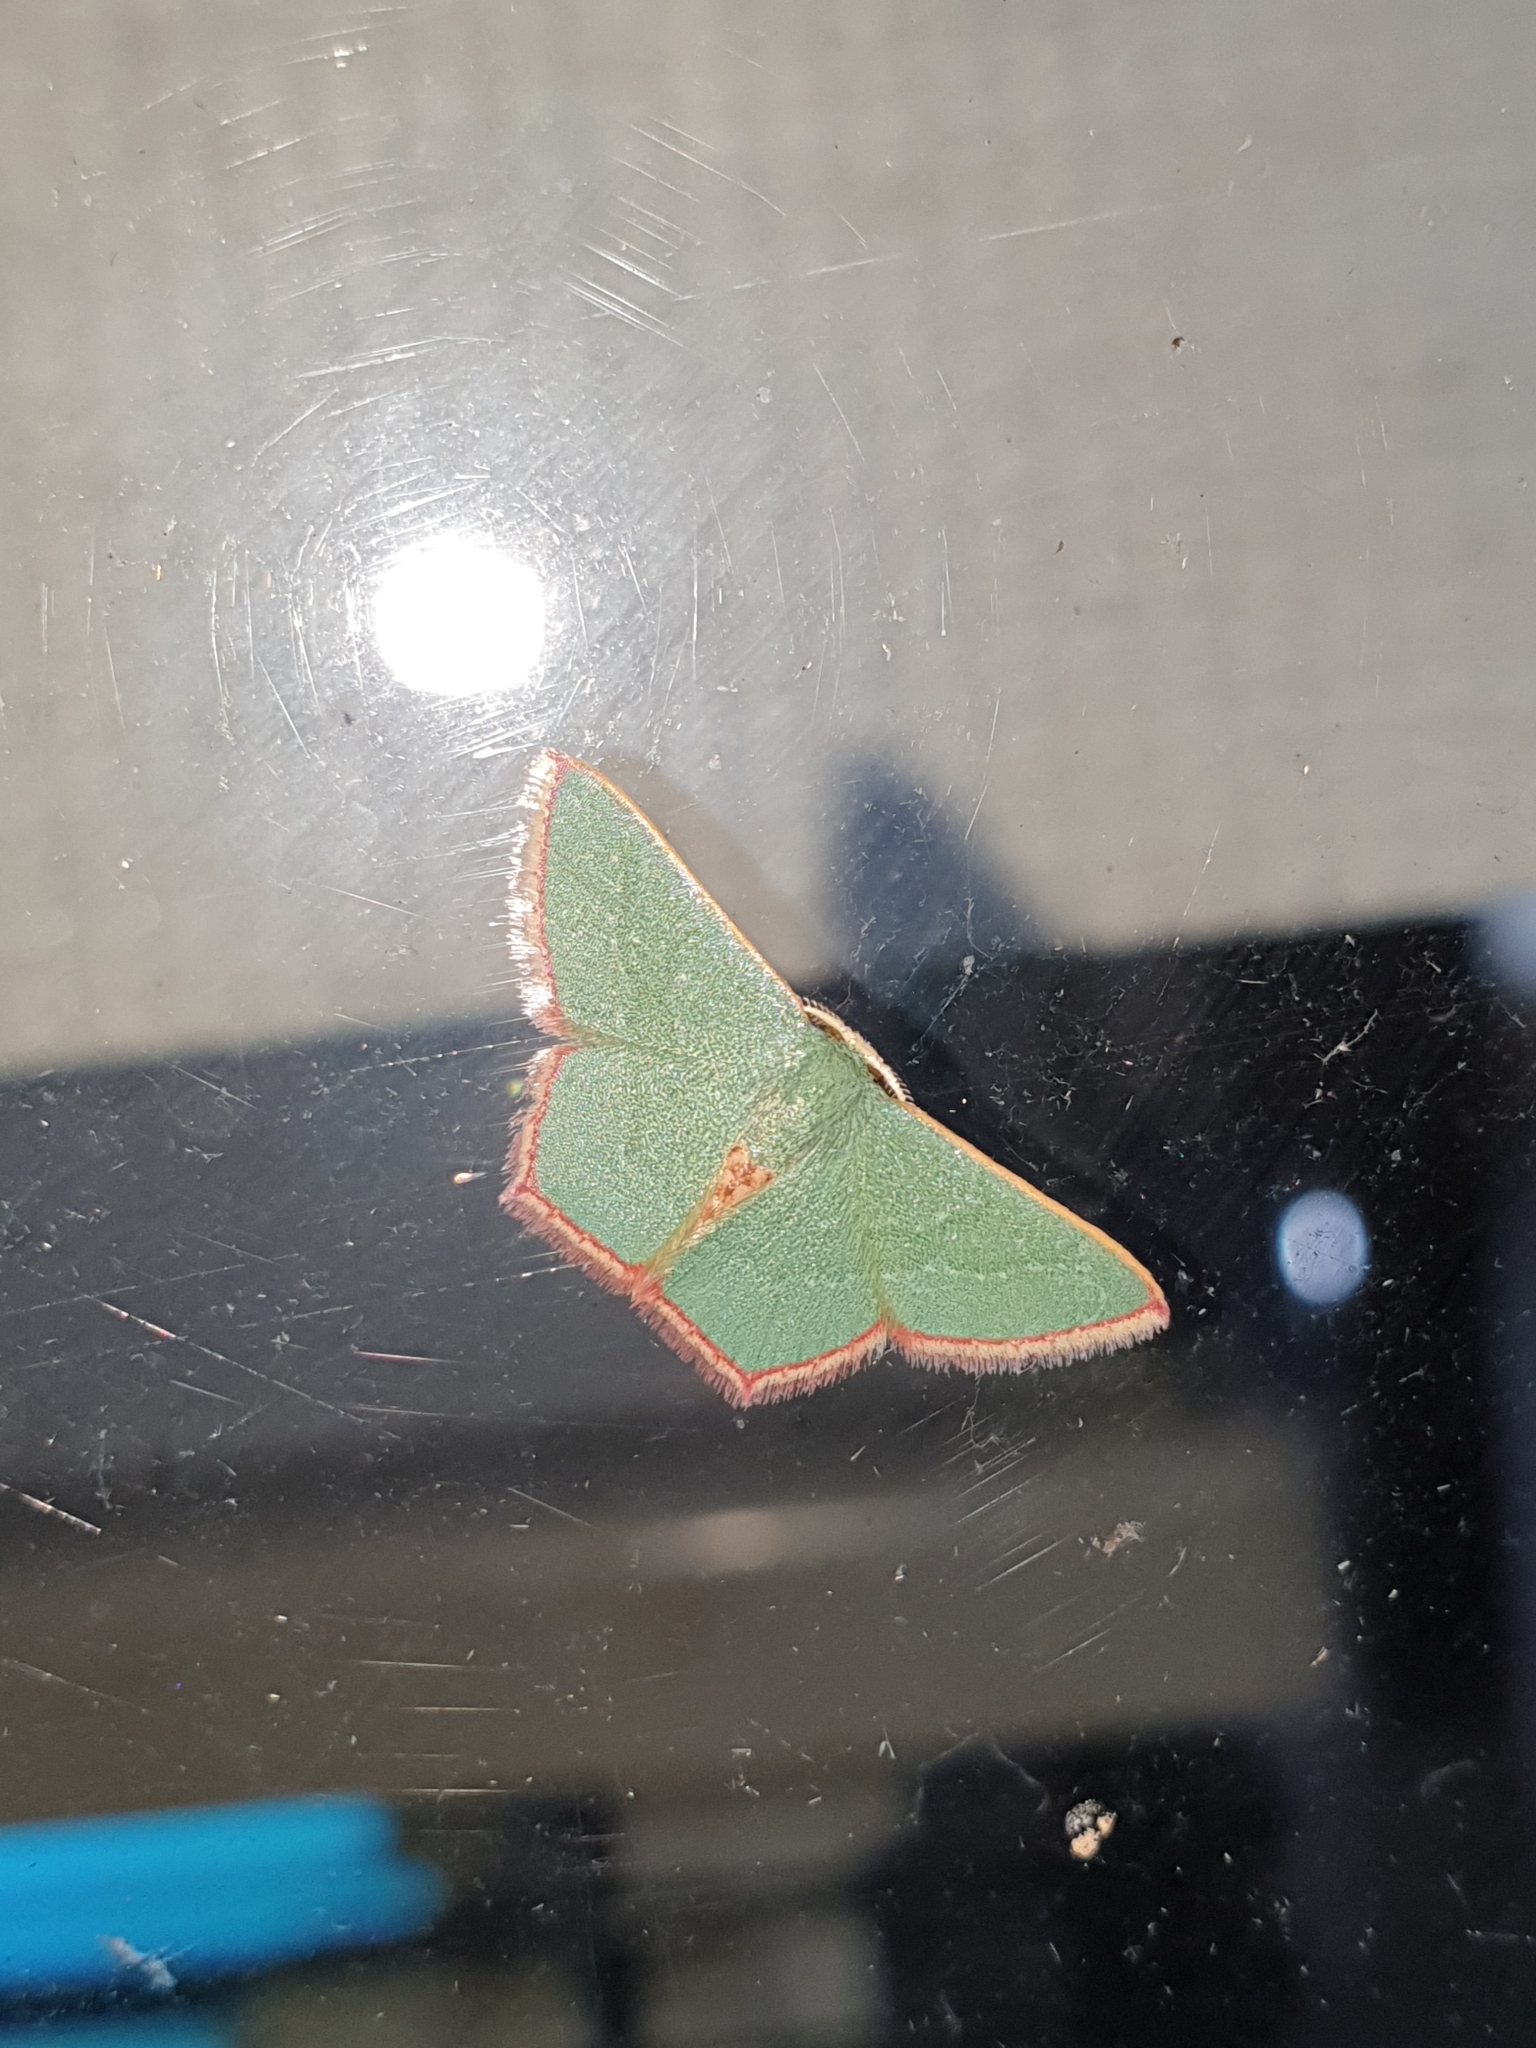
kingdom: Animalia
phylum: Arthropoda
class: Insecta
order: Lepidoptera
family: Geometridae
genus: Pamphlebia
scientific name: Pamphlebia rubrolimbraria
